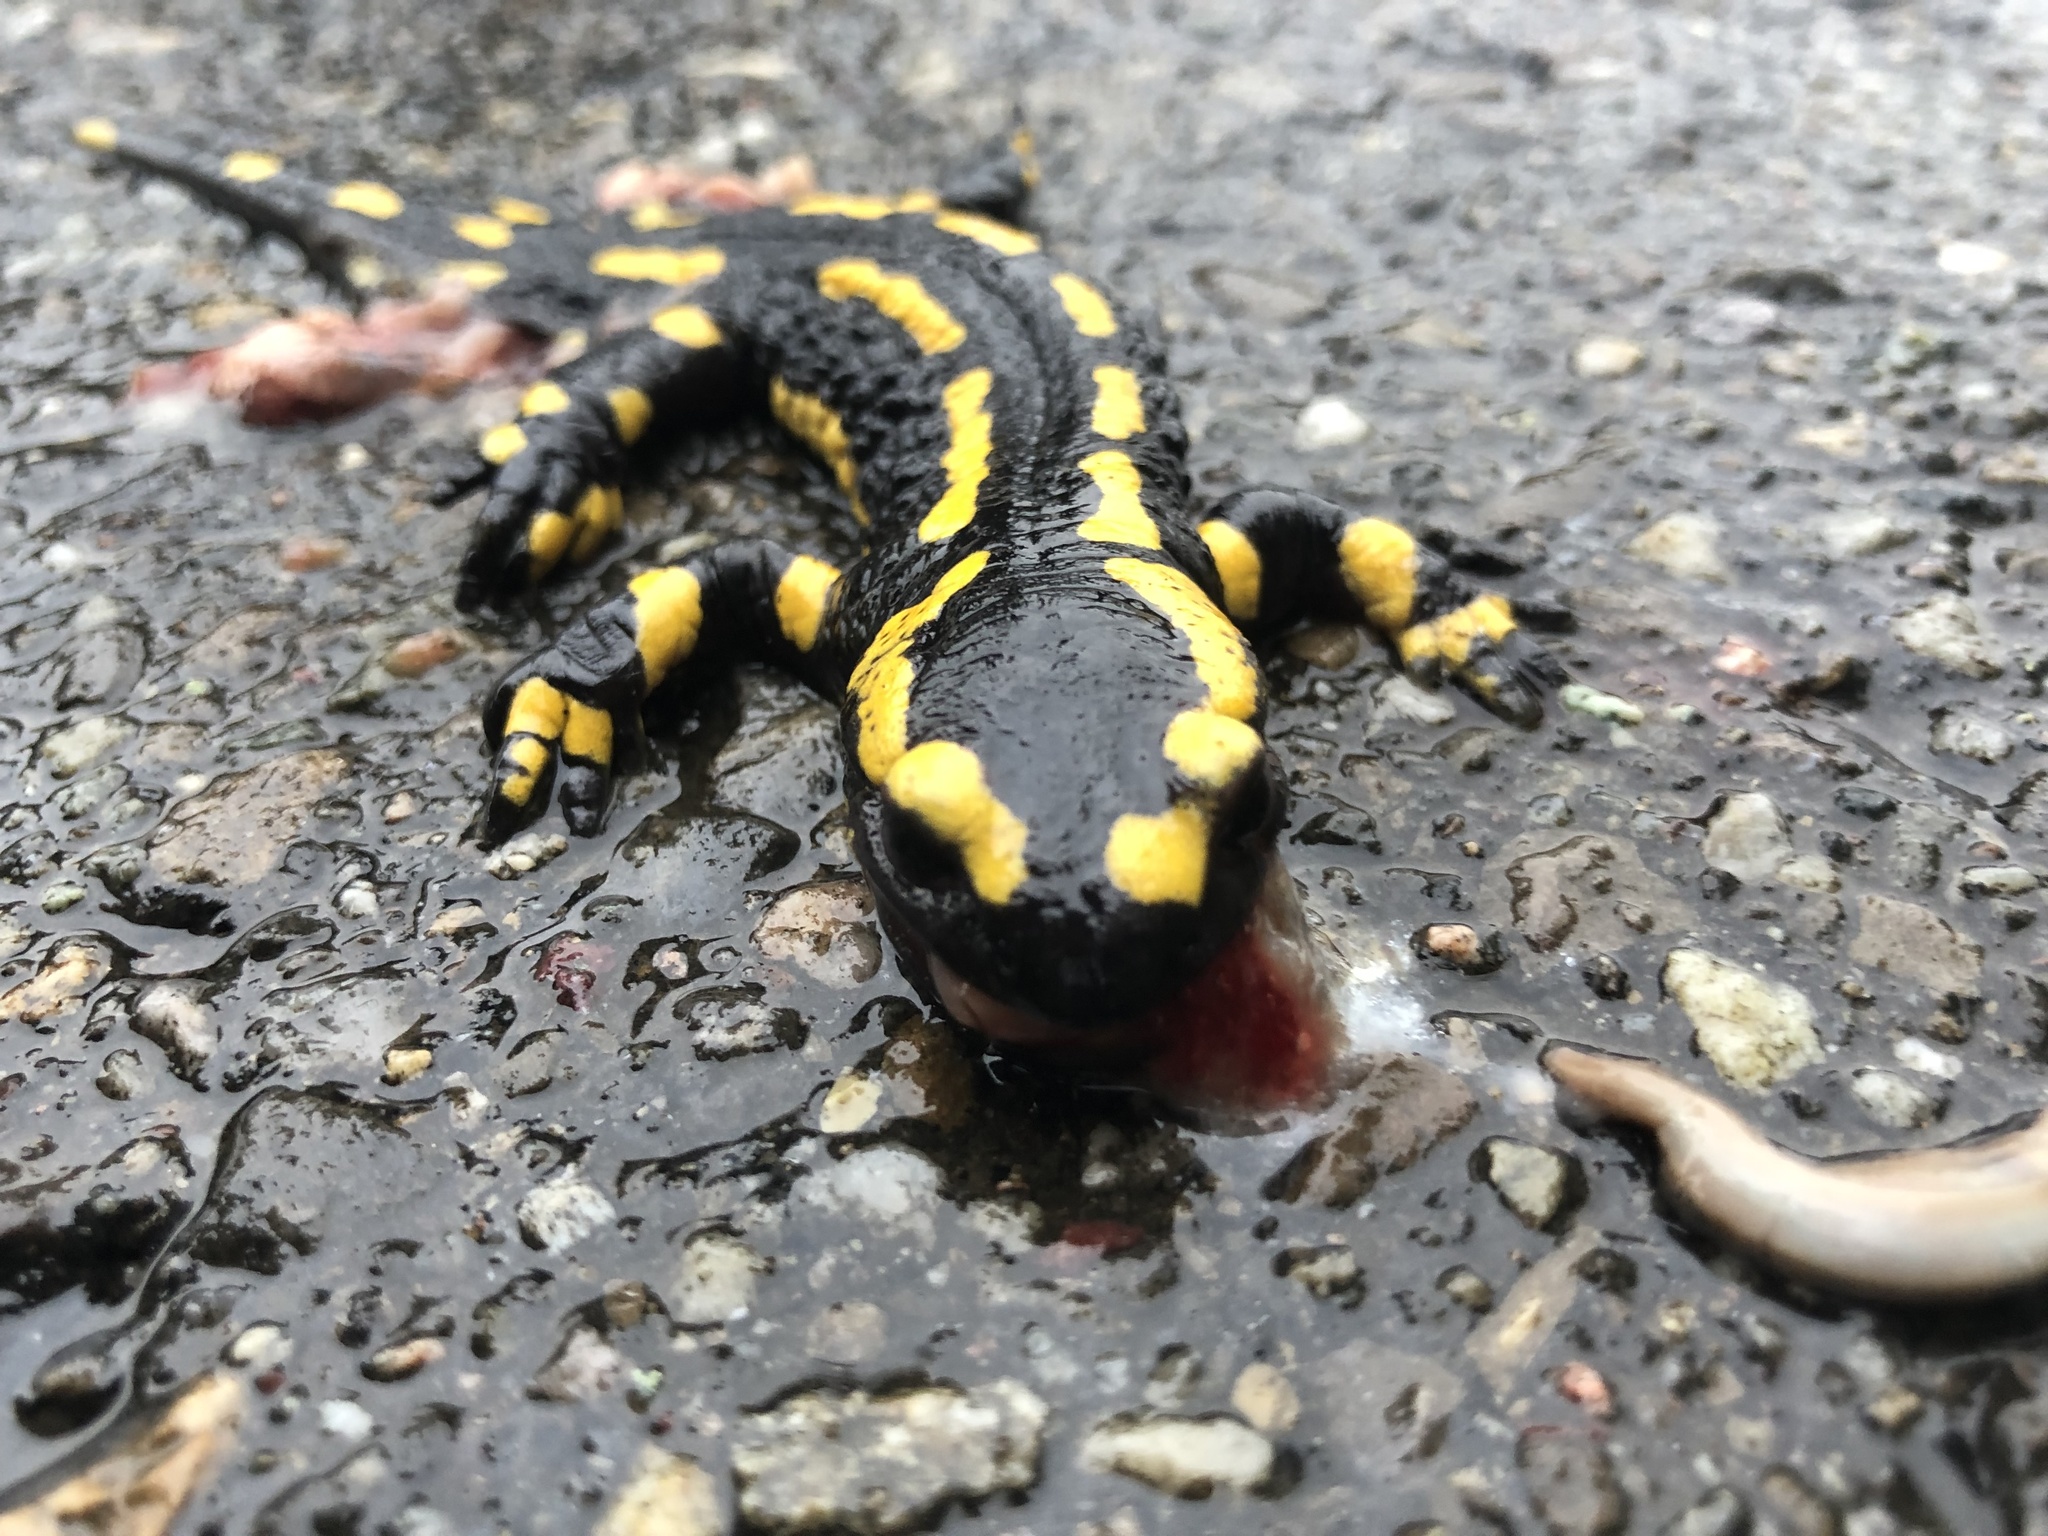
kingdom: Animalia
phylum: Chordata
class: Amphibia
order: Caudata
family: Salamandridae
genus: Salamandra
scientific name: Salamandra salamandra
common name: Fire salamander
